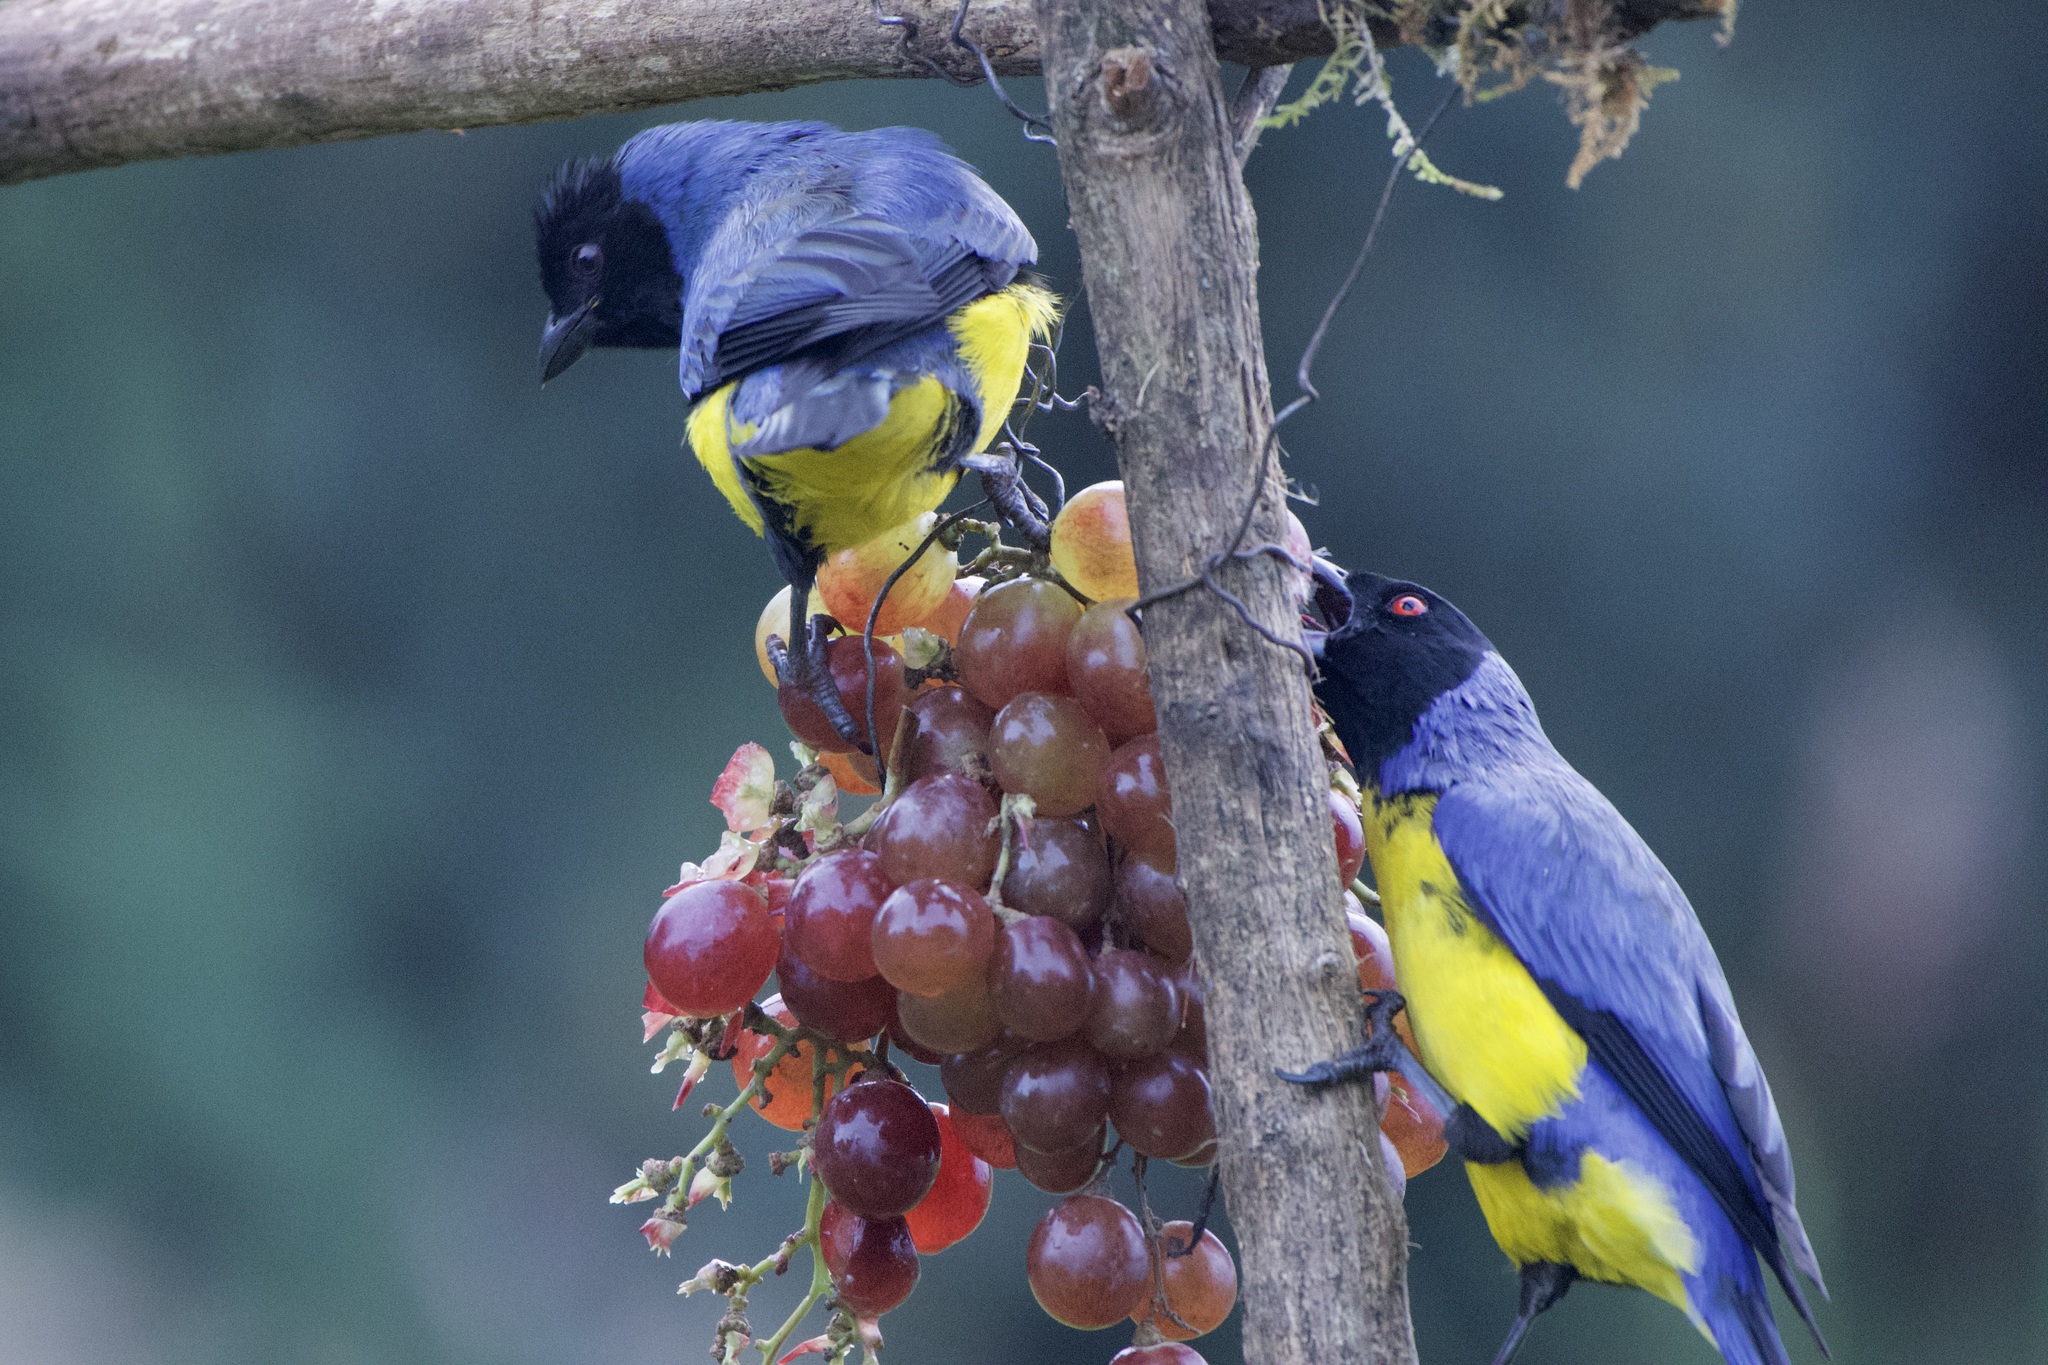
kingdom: Animalia
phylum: Chordata
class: Aves
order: Passeriformes
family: Thraupidae
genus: Buthraupis
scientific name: Buthraupis montana
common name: Hooded mountain tanager
